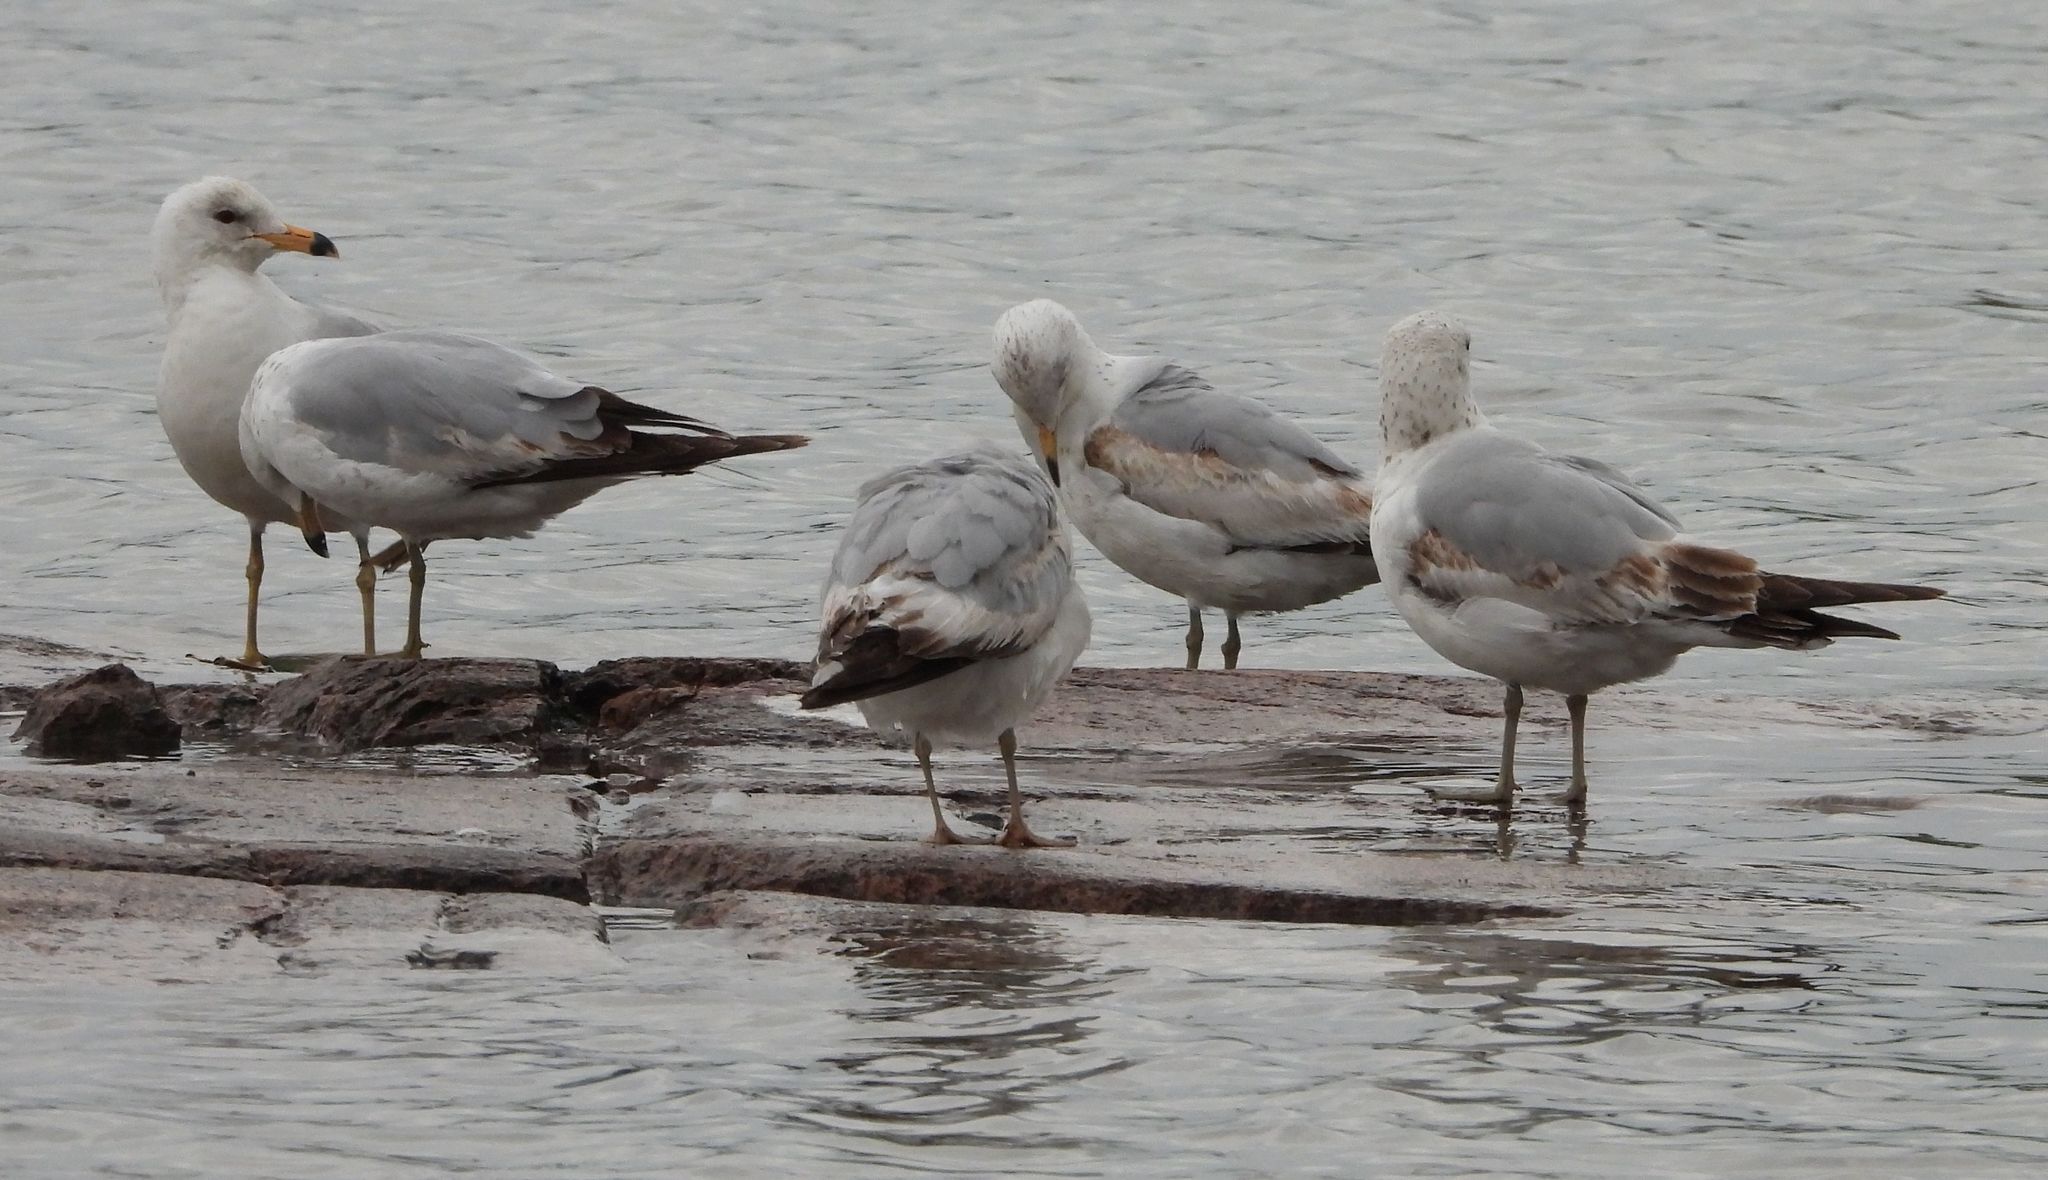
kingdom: Animalia
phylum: Chordata
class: Aves
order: Charadriiformes
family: Laridae
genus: Larus
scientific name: Larus delawarensis
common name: Ring-billed gull
